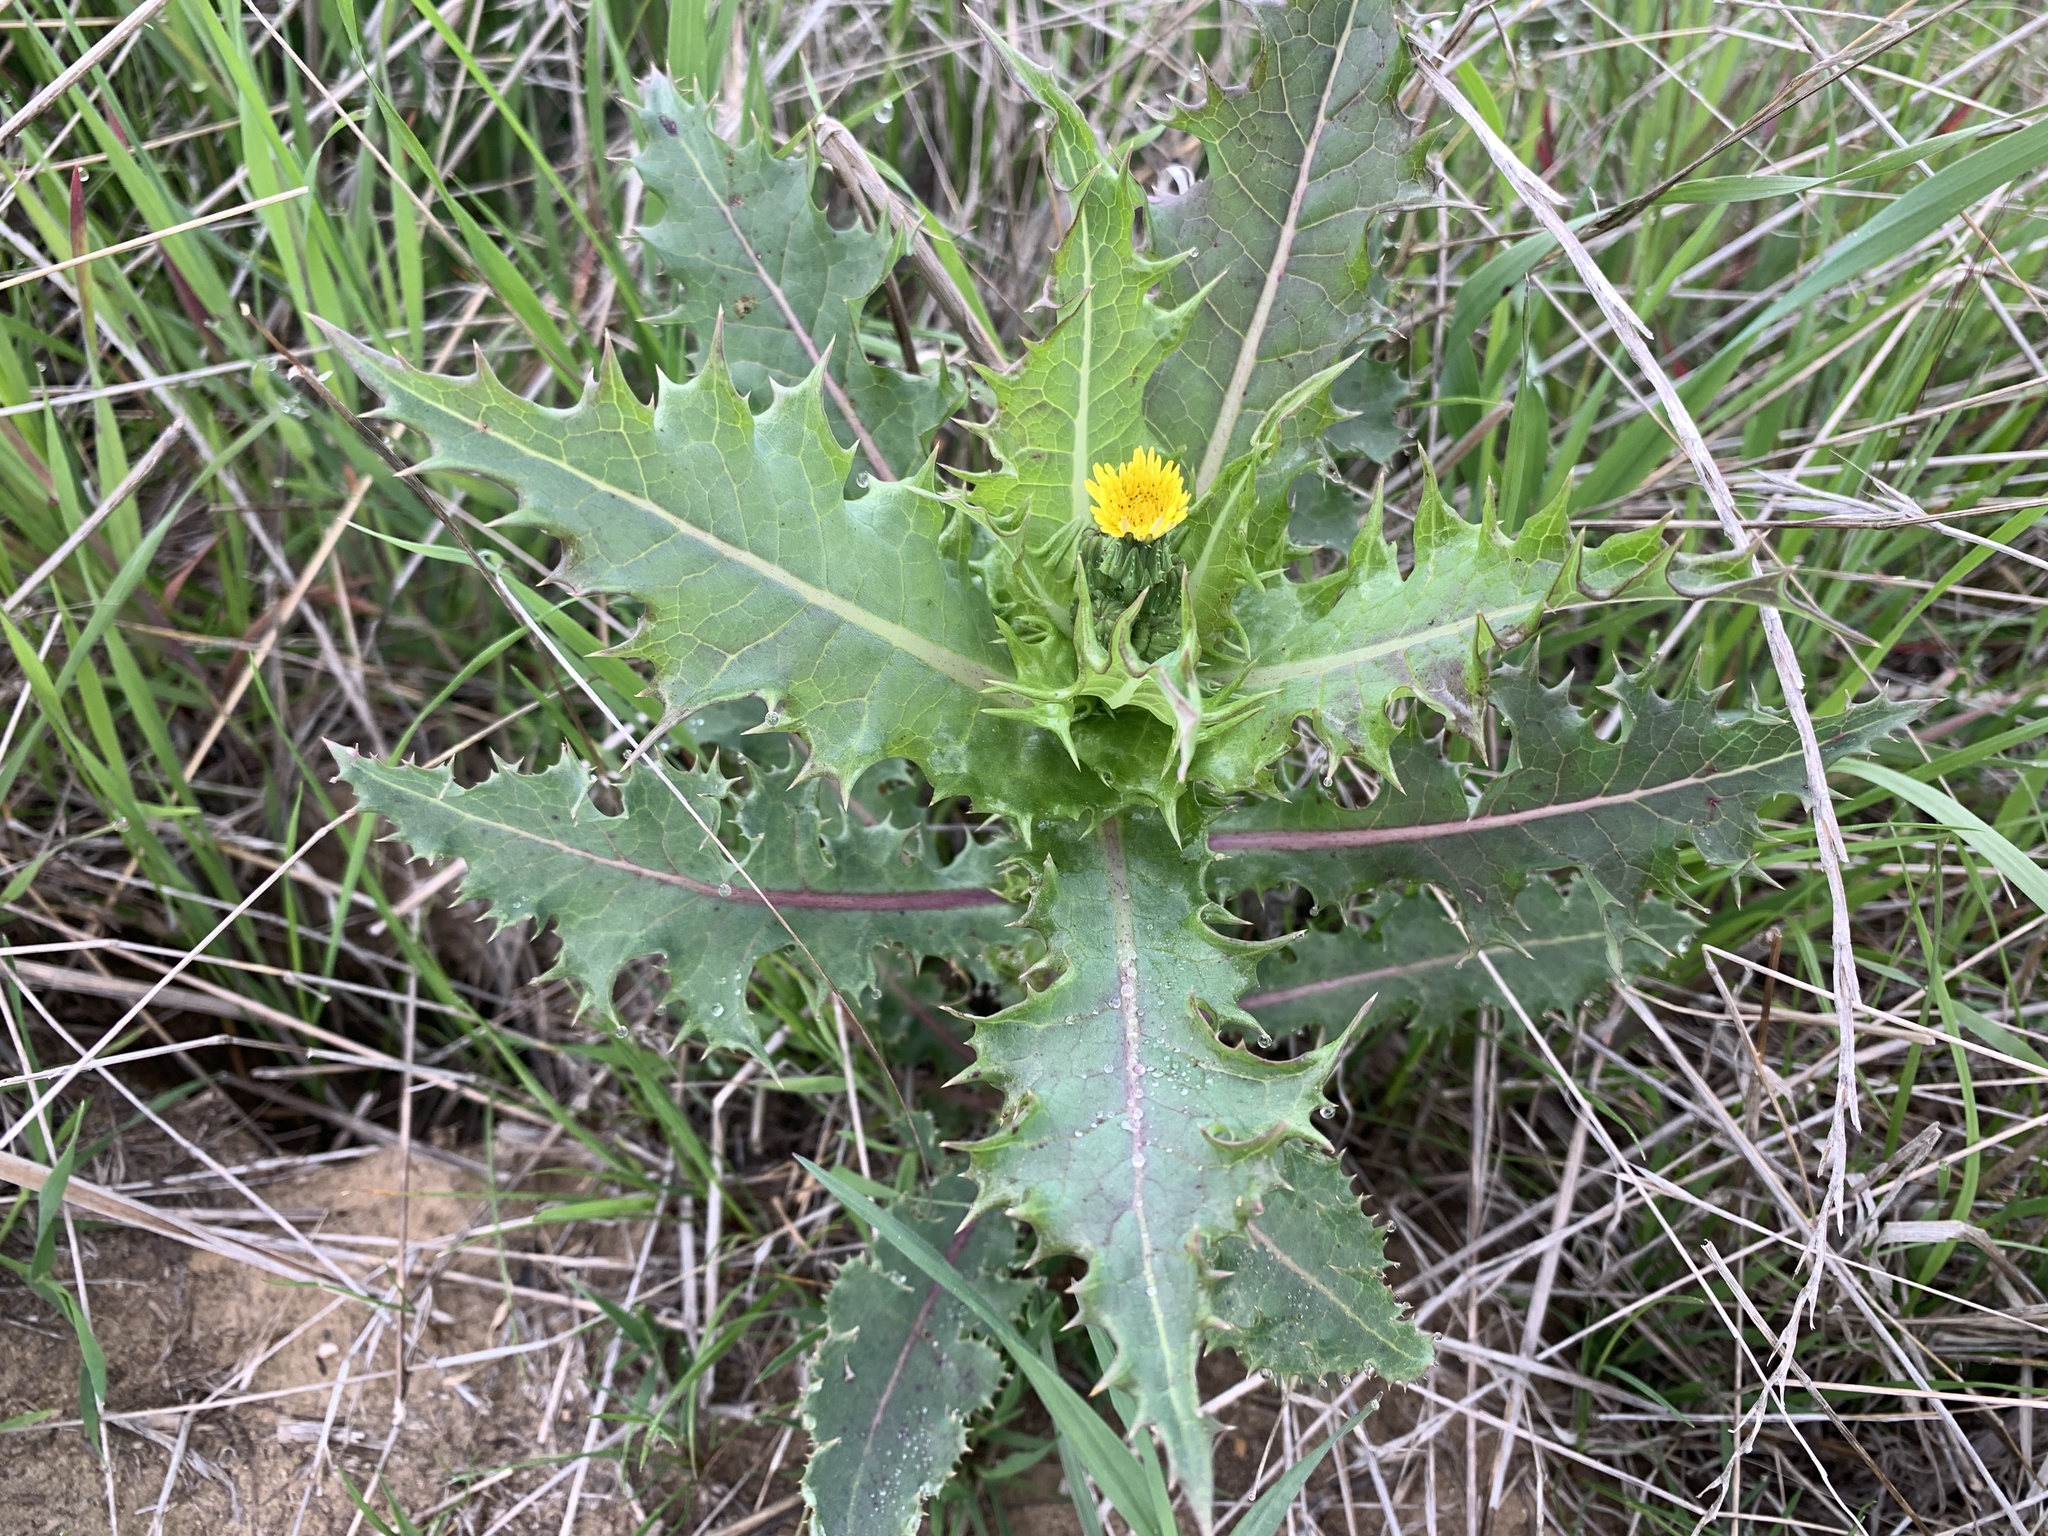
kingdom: Plantae
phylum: Tracheophyta
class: Magnoliopsida
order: Asterales
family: Asteraceae
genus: Sonchus
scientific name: Sonchus asper
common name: Prickly sow-thistle
